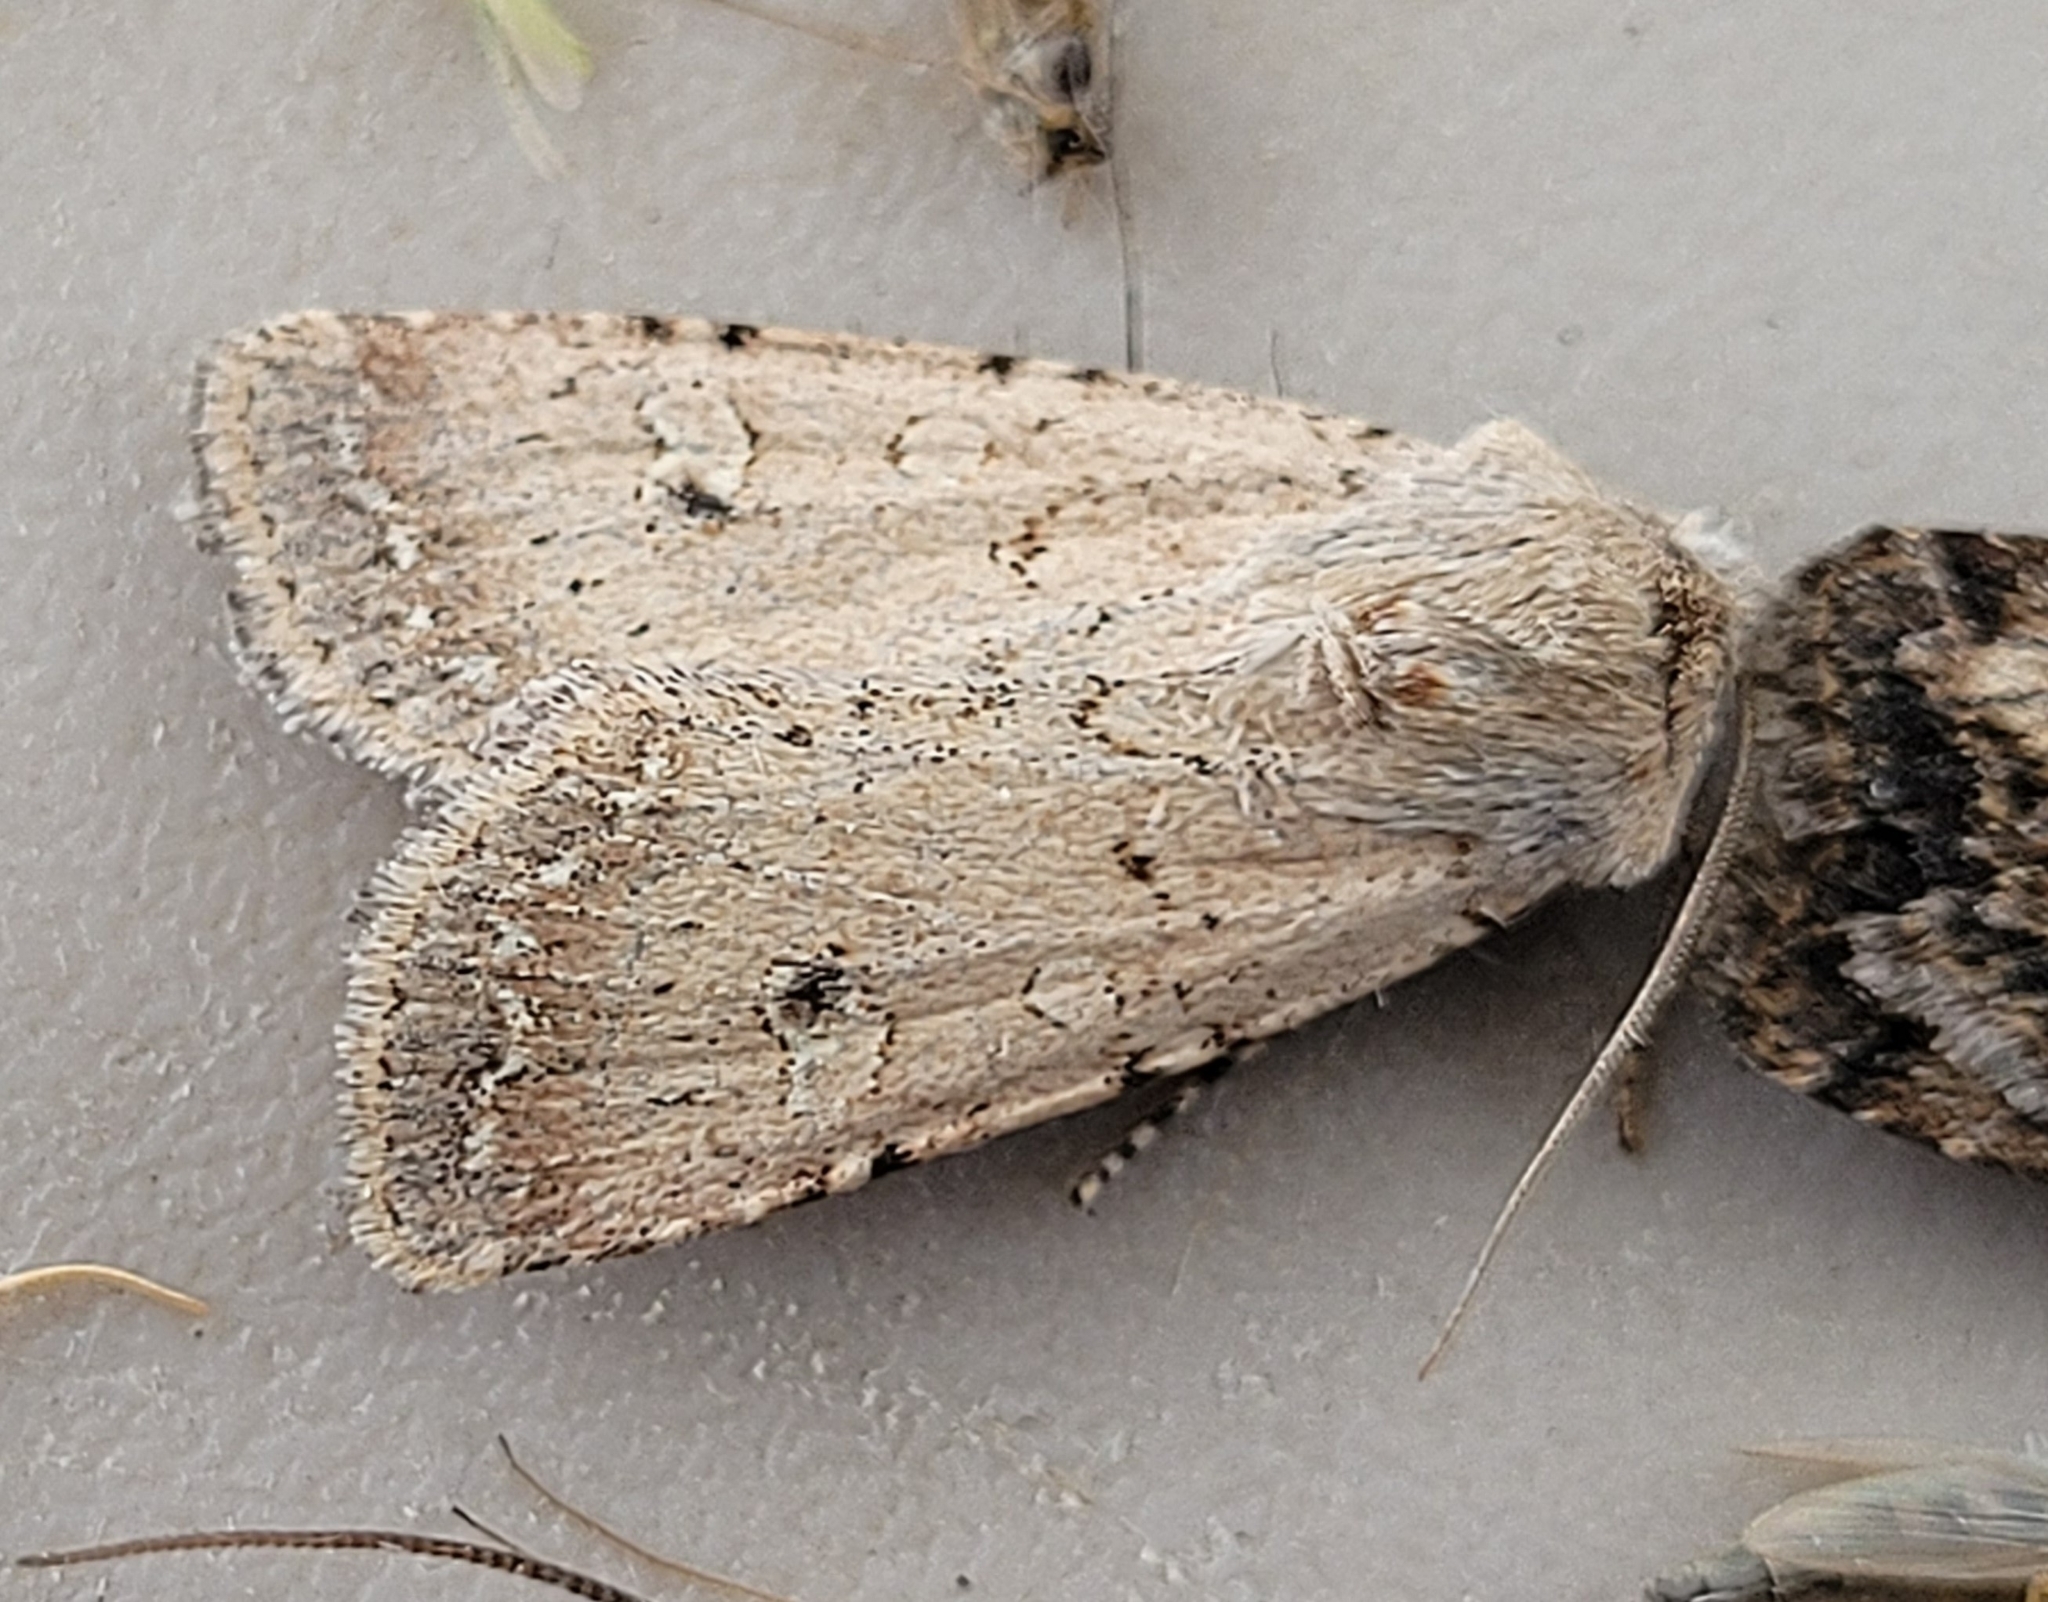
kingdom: Animalia
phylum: Arthropoda
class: Insecta
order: Lepidoptera
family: Noctuidae
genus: Euxoa
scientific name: Euxoa scandens
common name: White cutworm
